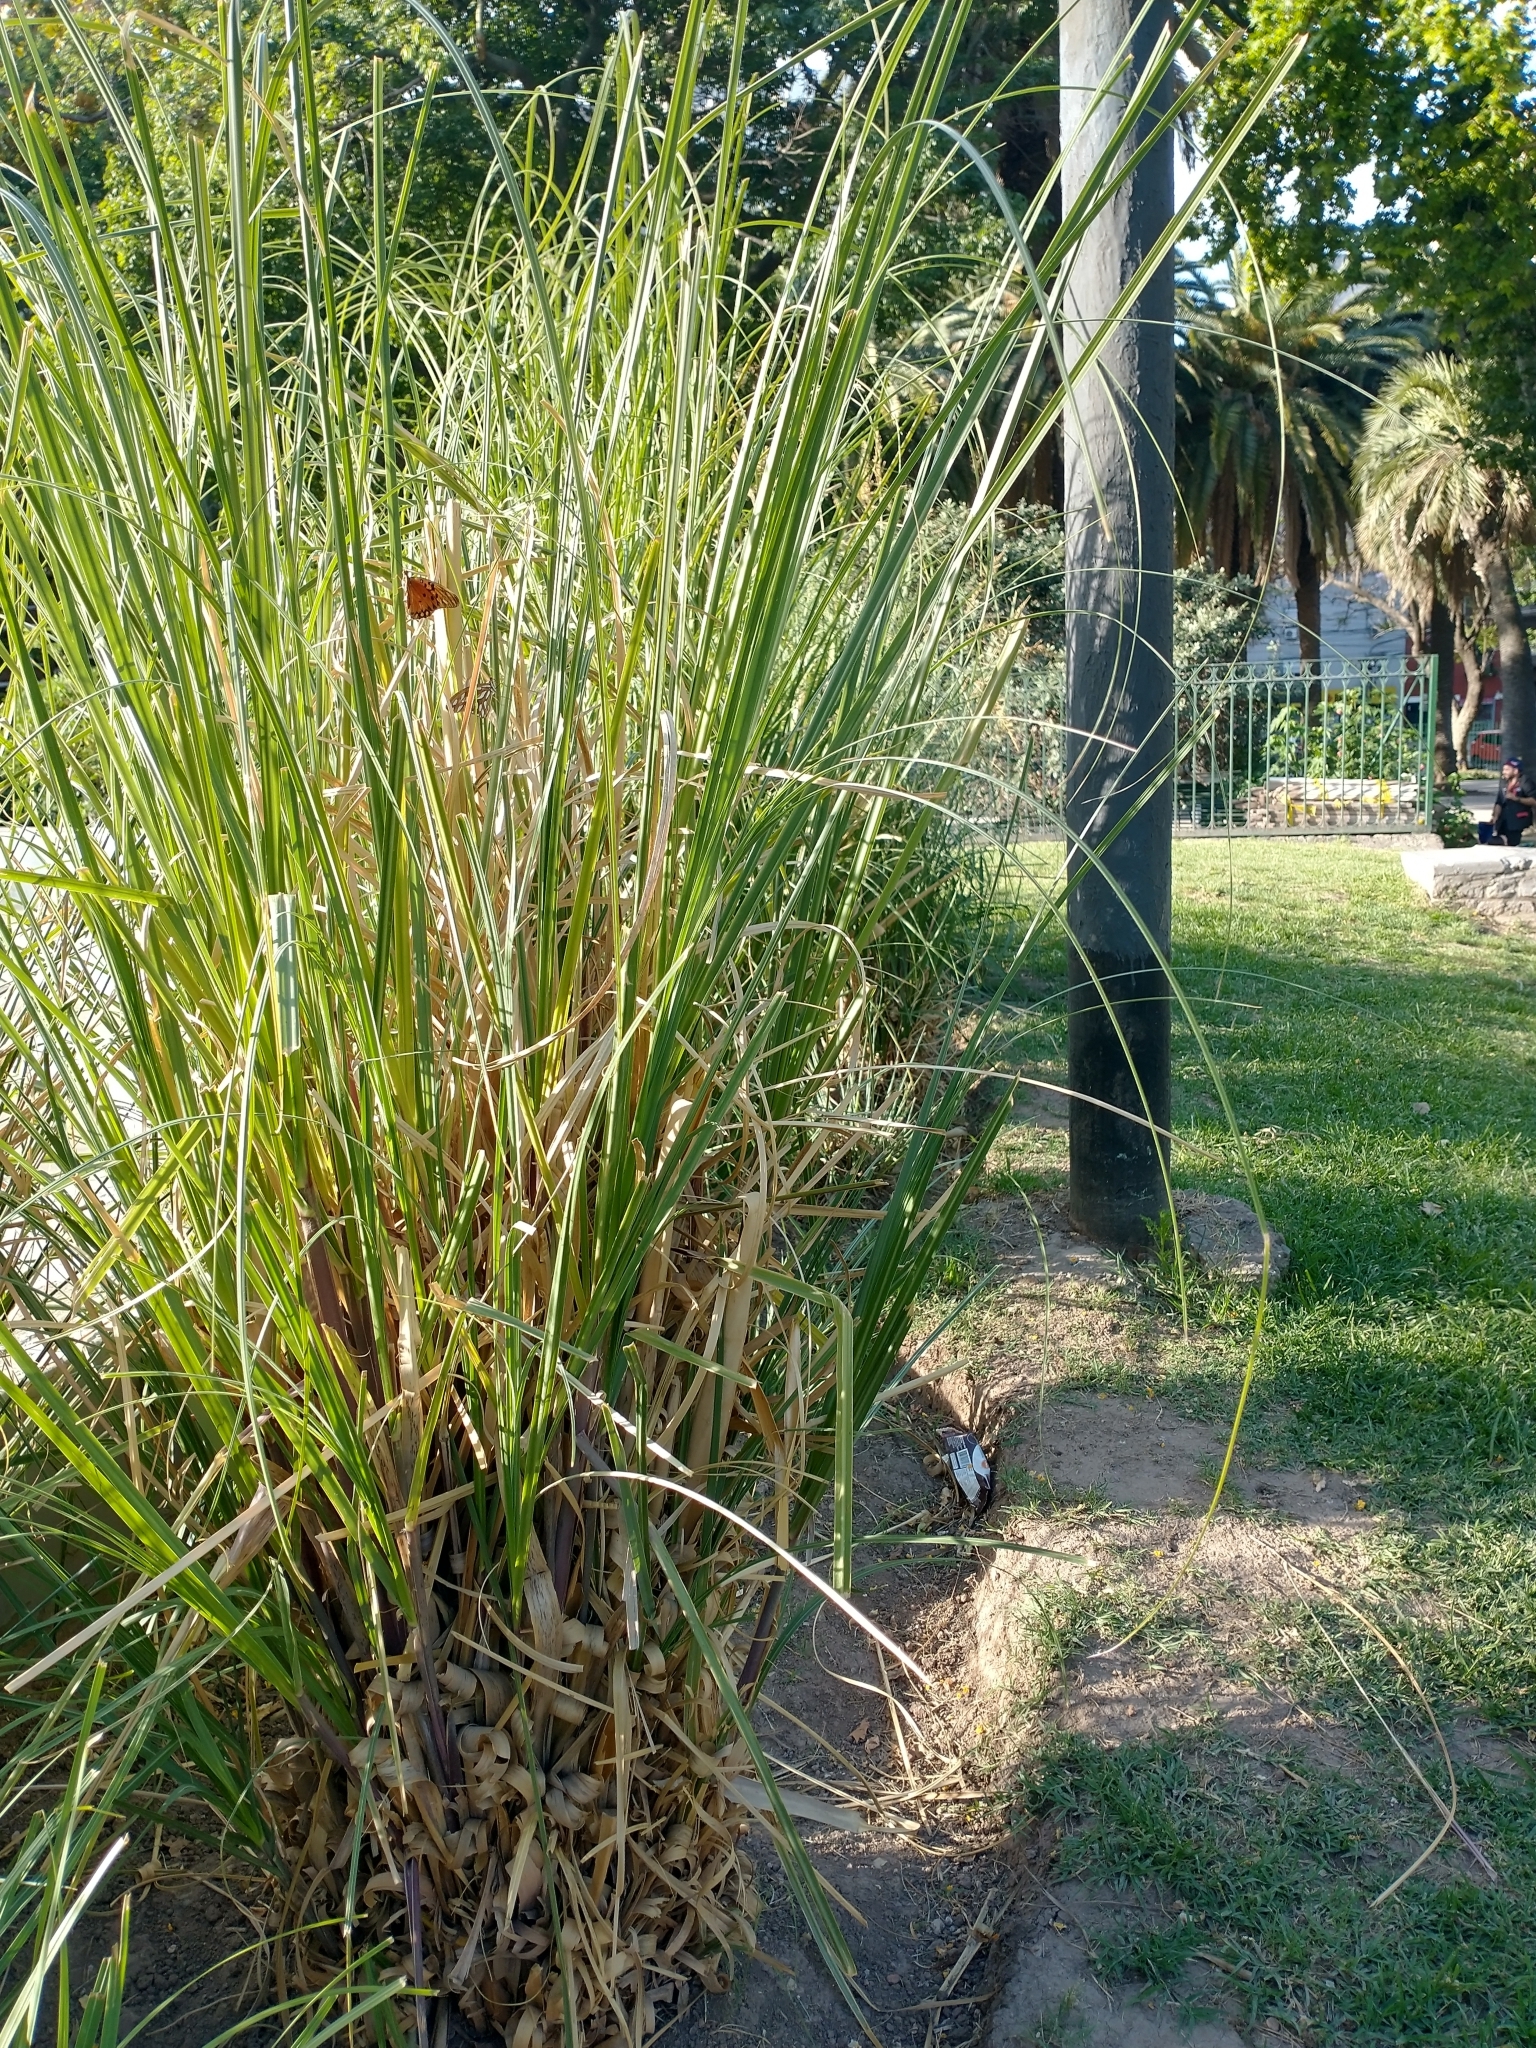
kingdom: Animalia
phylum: Arthropoda
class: Insecta
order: Lepidoptera
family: Nymphalidae
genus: Dione
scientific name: Dione vanillae
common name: Gulf fritillary
